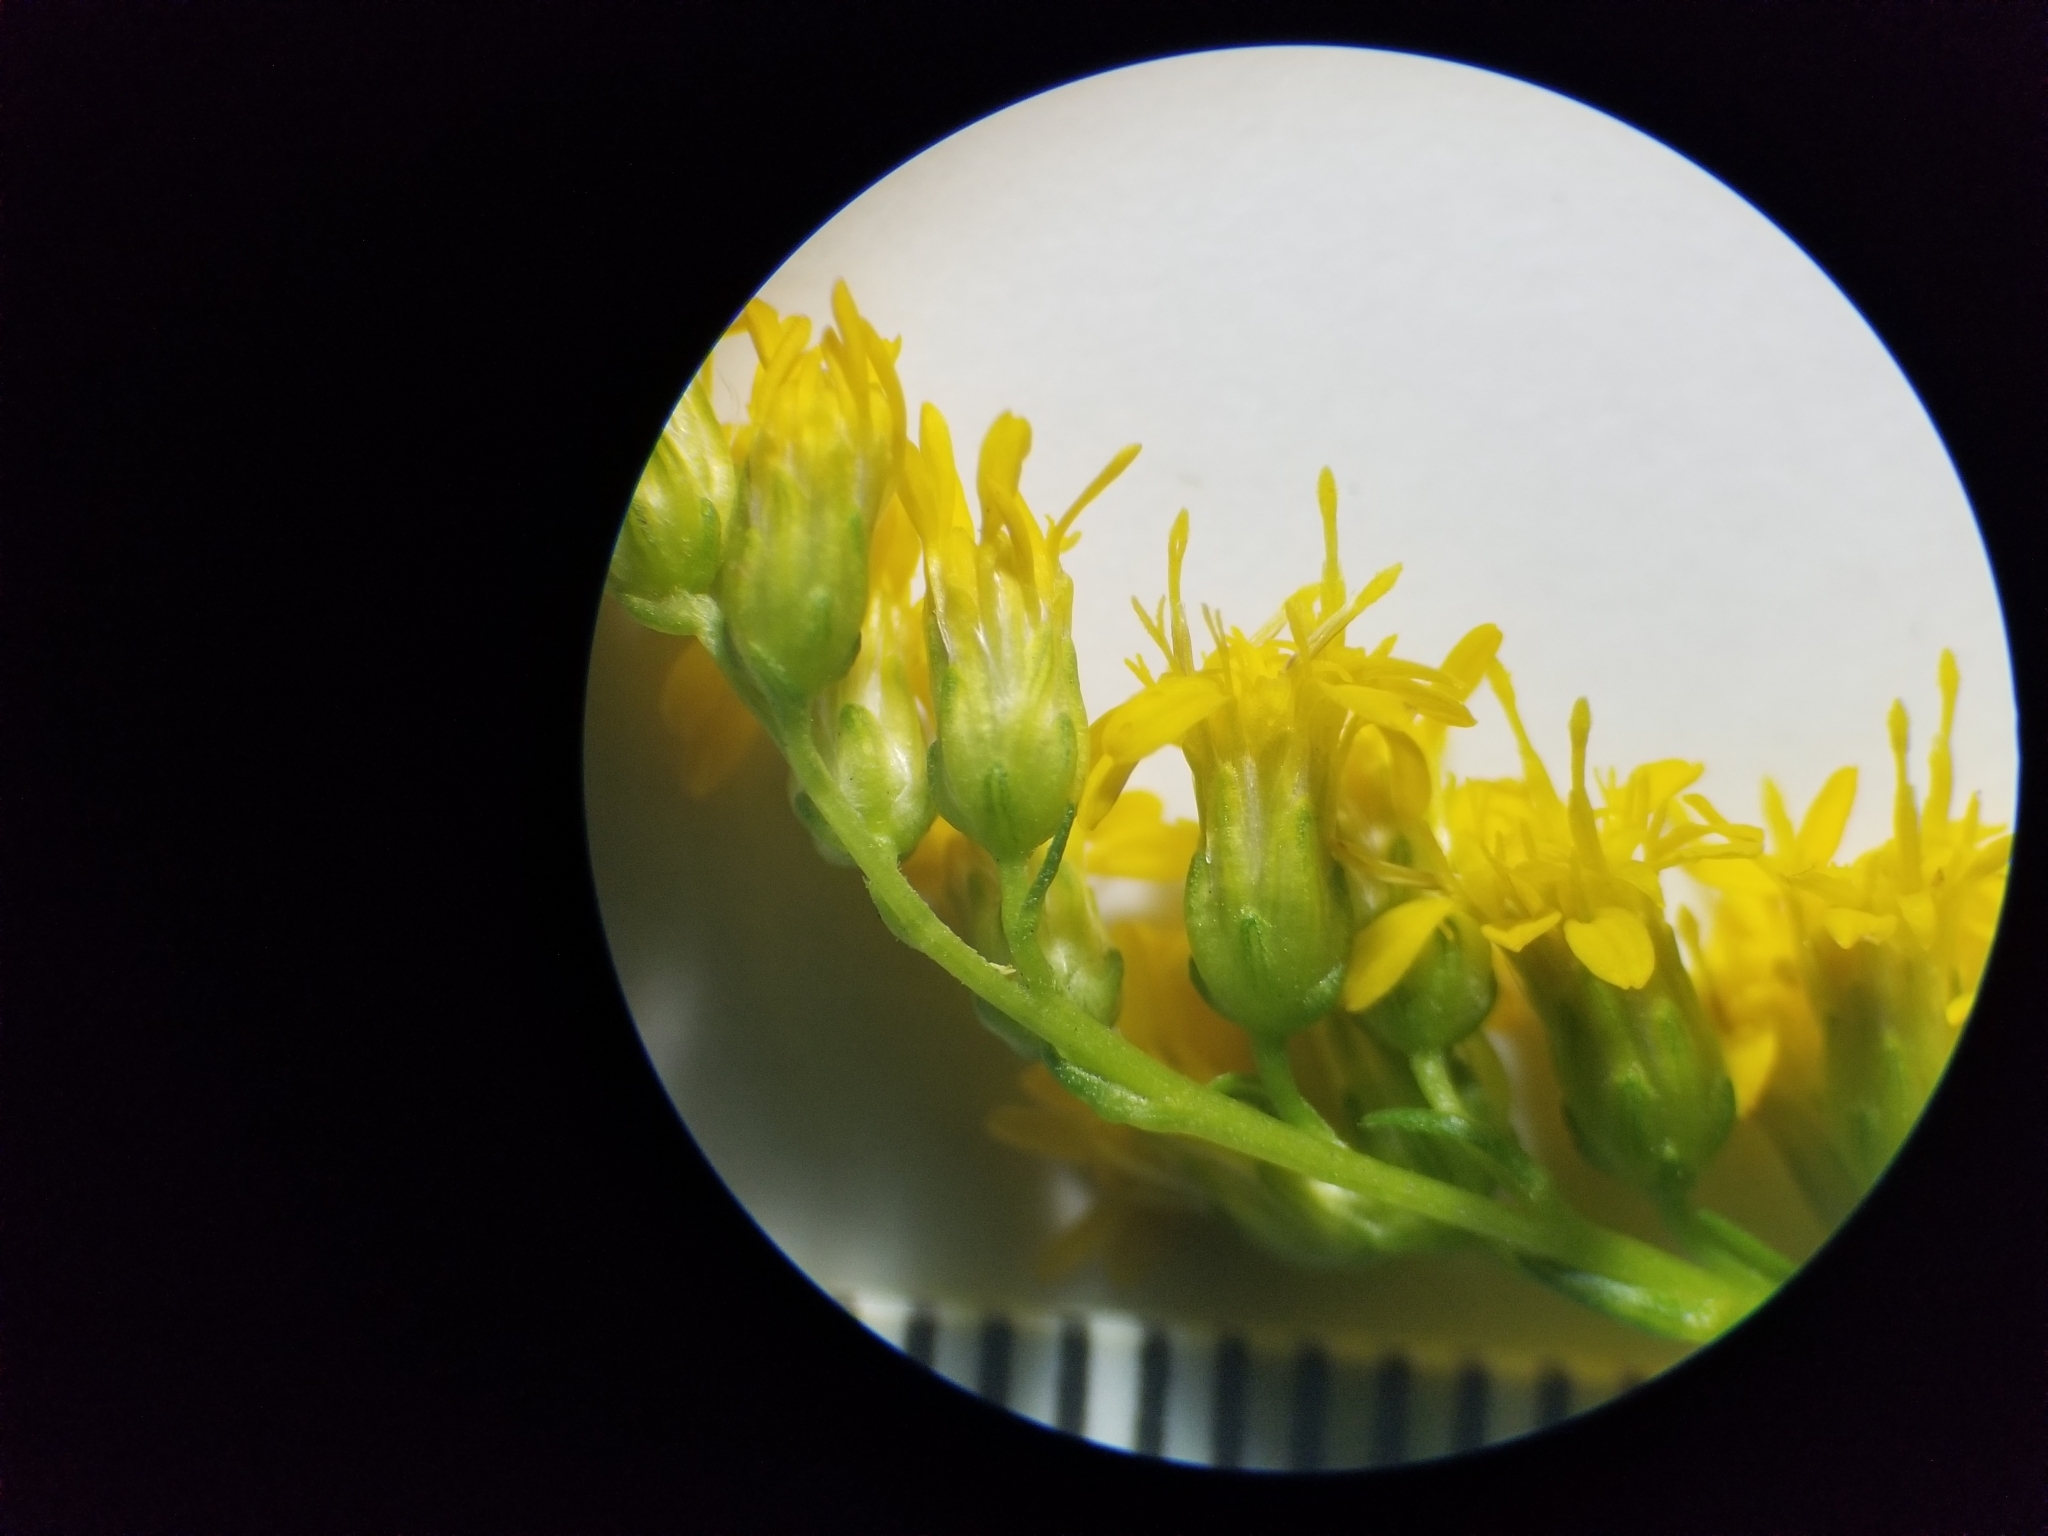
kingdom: Plantae
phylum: Tracheophyta
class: Magnoliopsida
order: Asterales
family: Asteraceae
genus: Solidago
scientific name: Solidago juncea
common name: Early goldenrod
